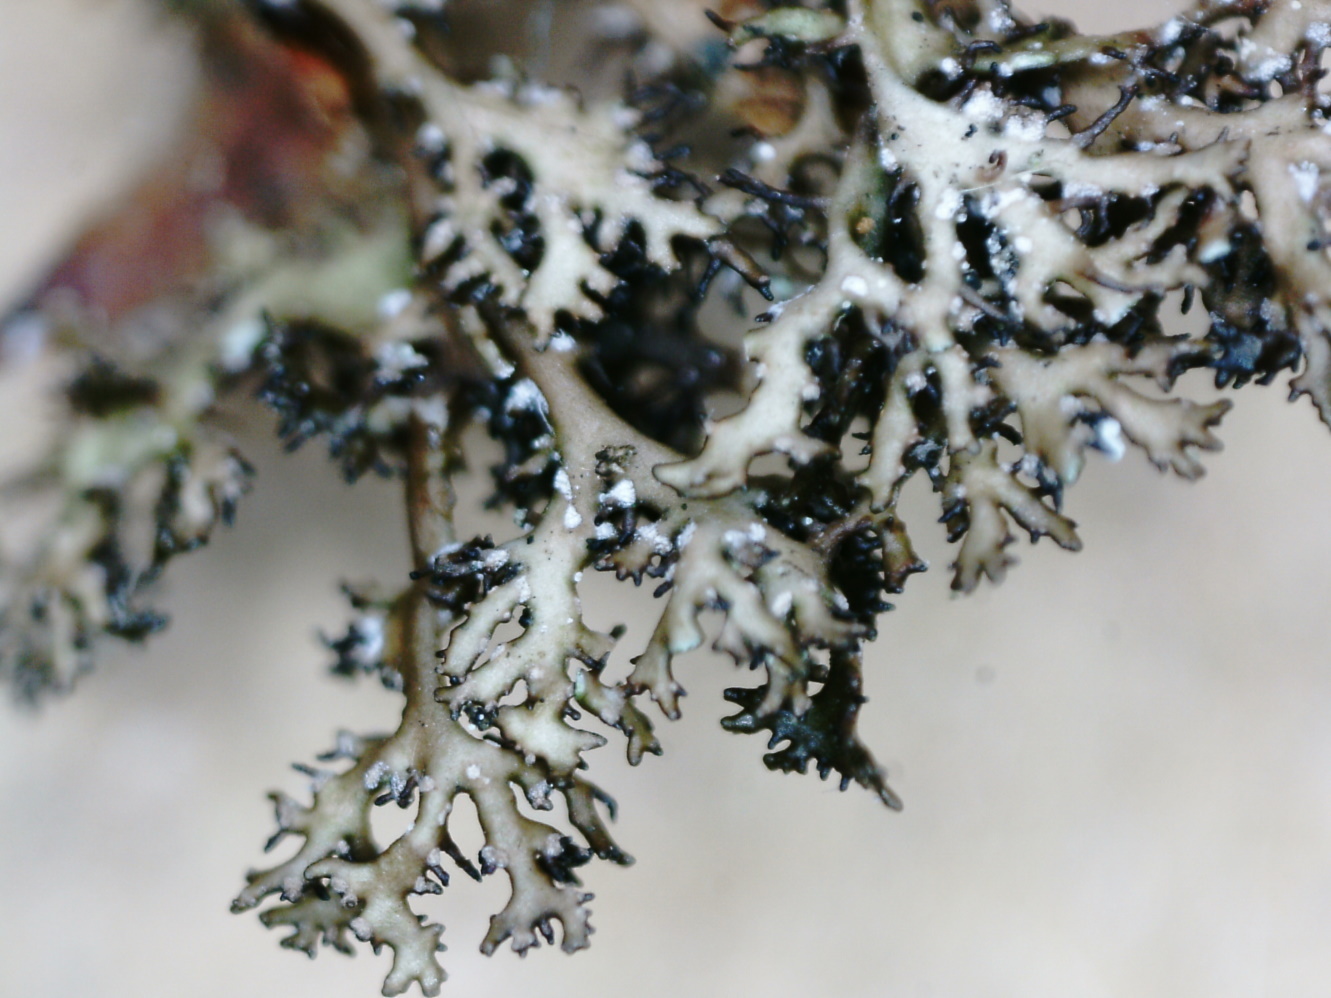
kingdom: Fungi
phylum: Ascomycota
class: Lecanoromycetes
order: Lecanorales
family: Parmeliaceae
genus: Cetraria
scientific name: Cetraria odontella
